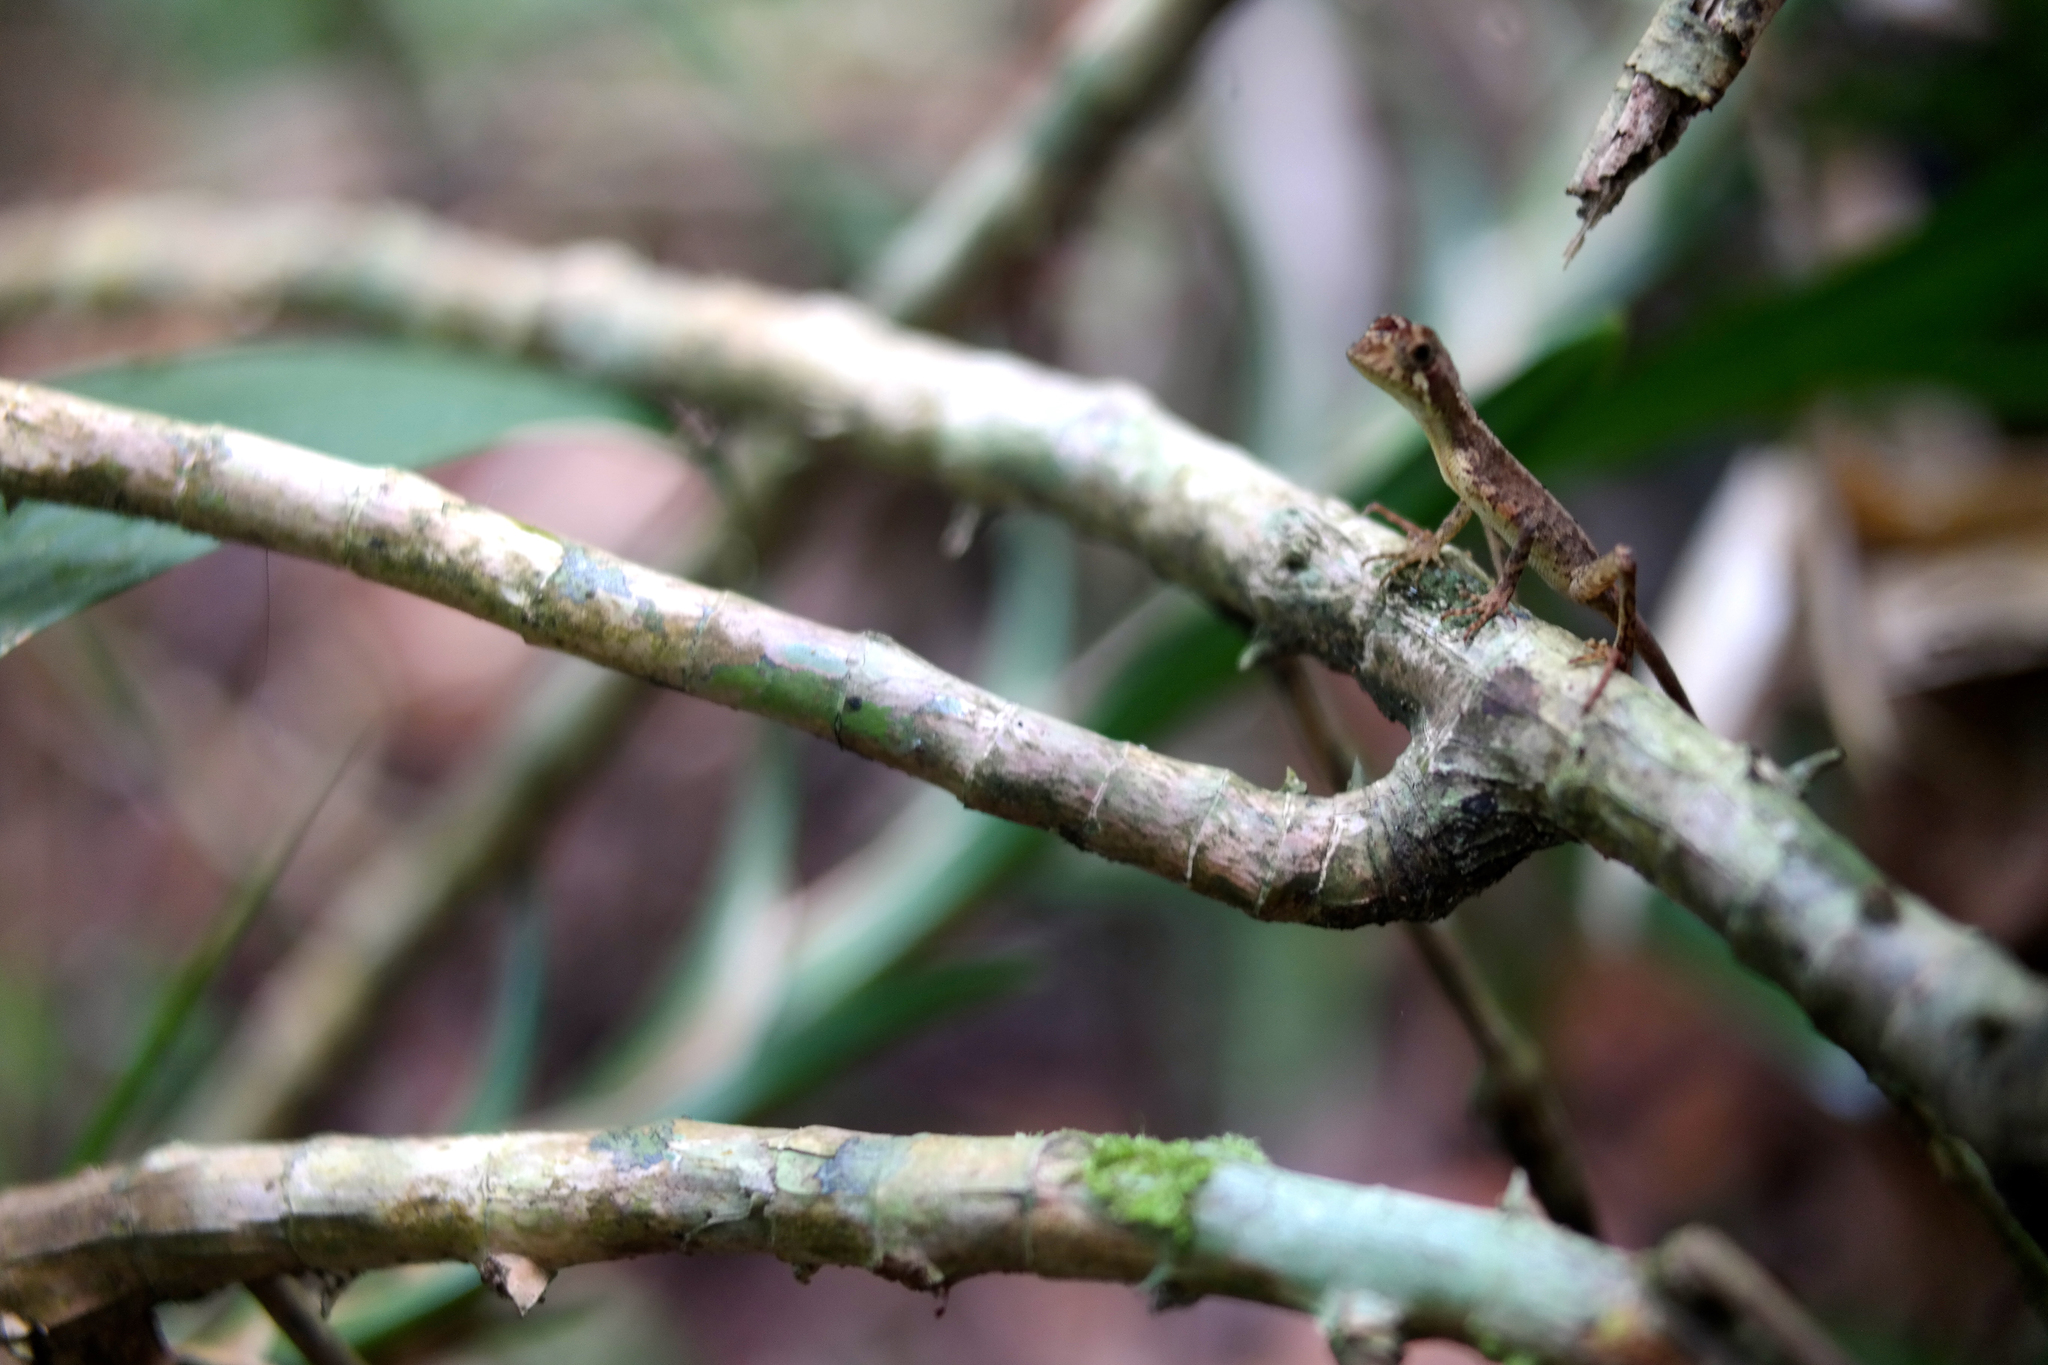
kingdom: Animalia
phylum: Chordata
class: Squamata
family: Agamidae
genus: Otocryptis
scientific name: Otocryptis wiegmanni
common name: Wiegmann's agama
